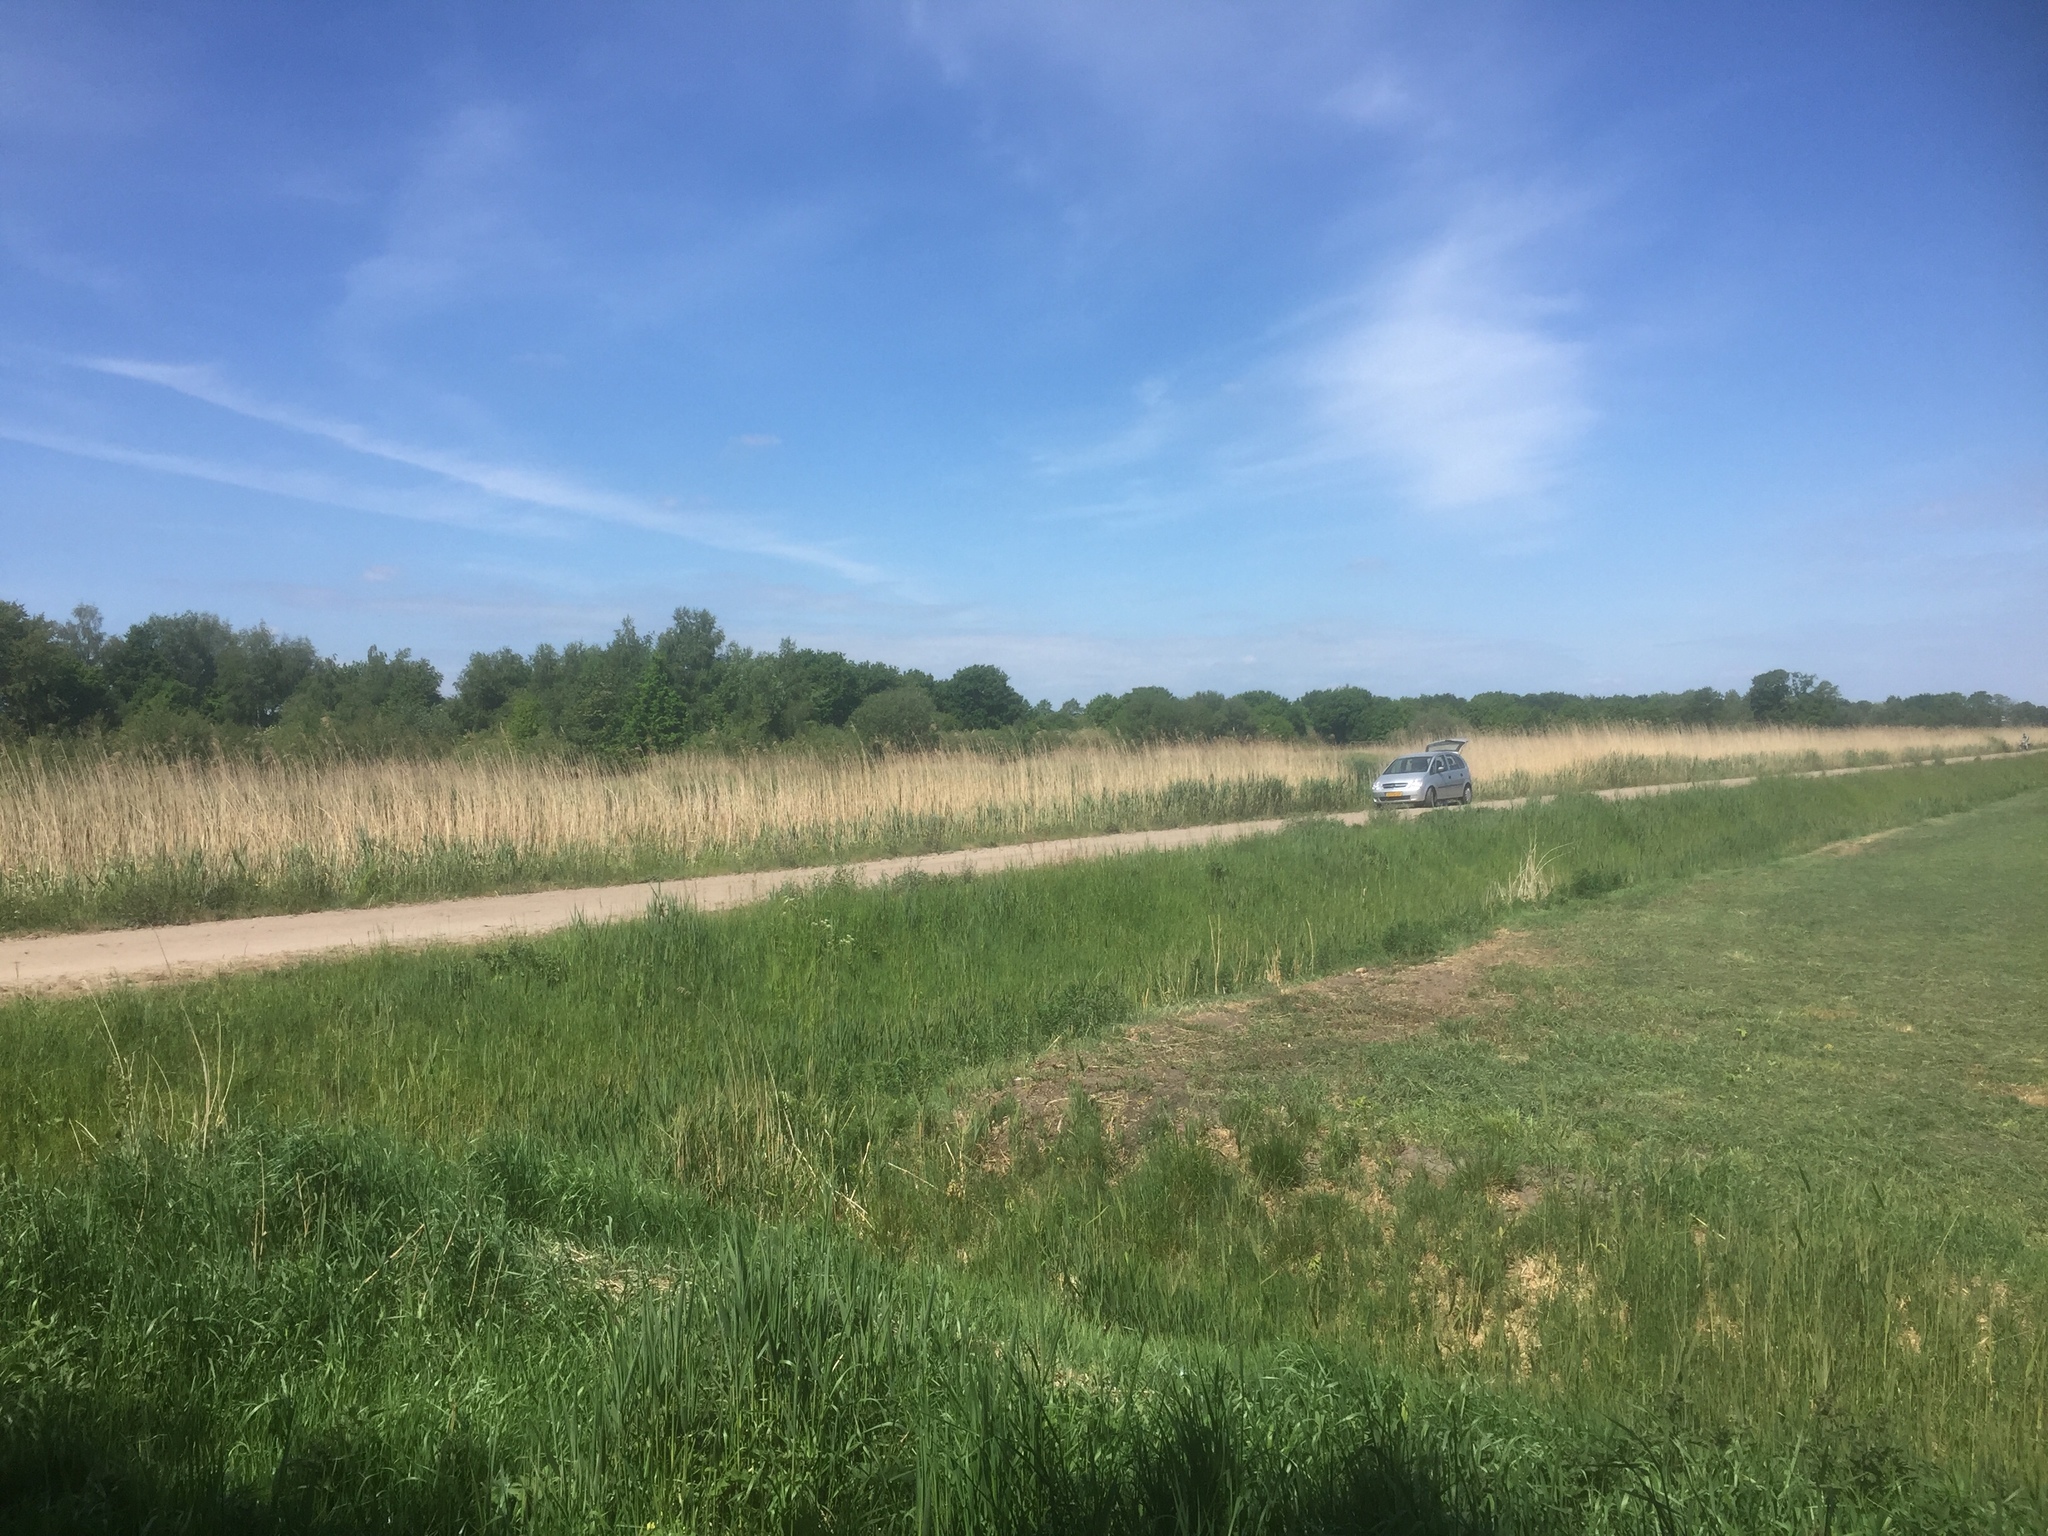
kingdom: Plantae
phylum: Tracheophyta
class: Liliopsida
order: Poales
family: Poaceae
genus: Phragmites
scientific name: Phragmites australis
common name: Common reed
